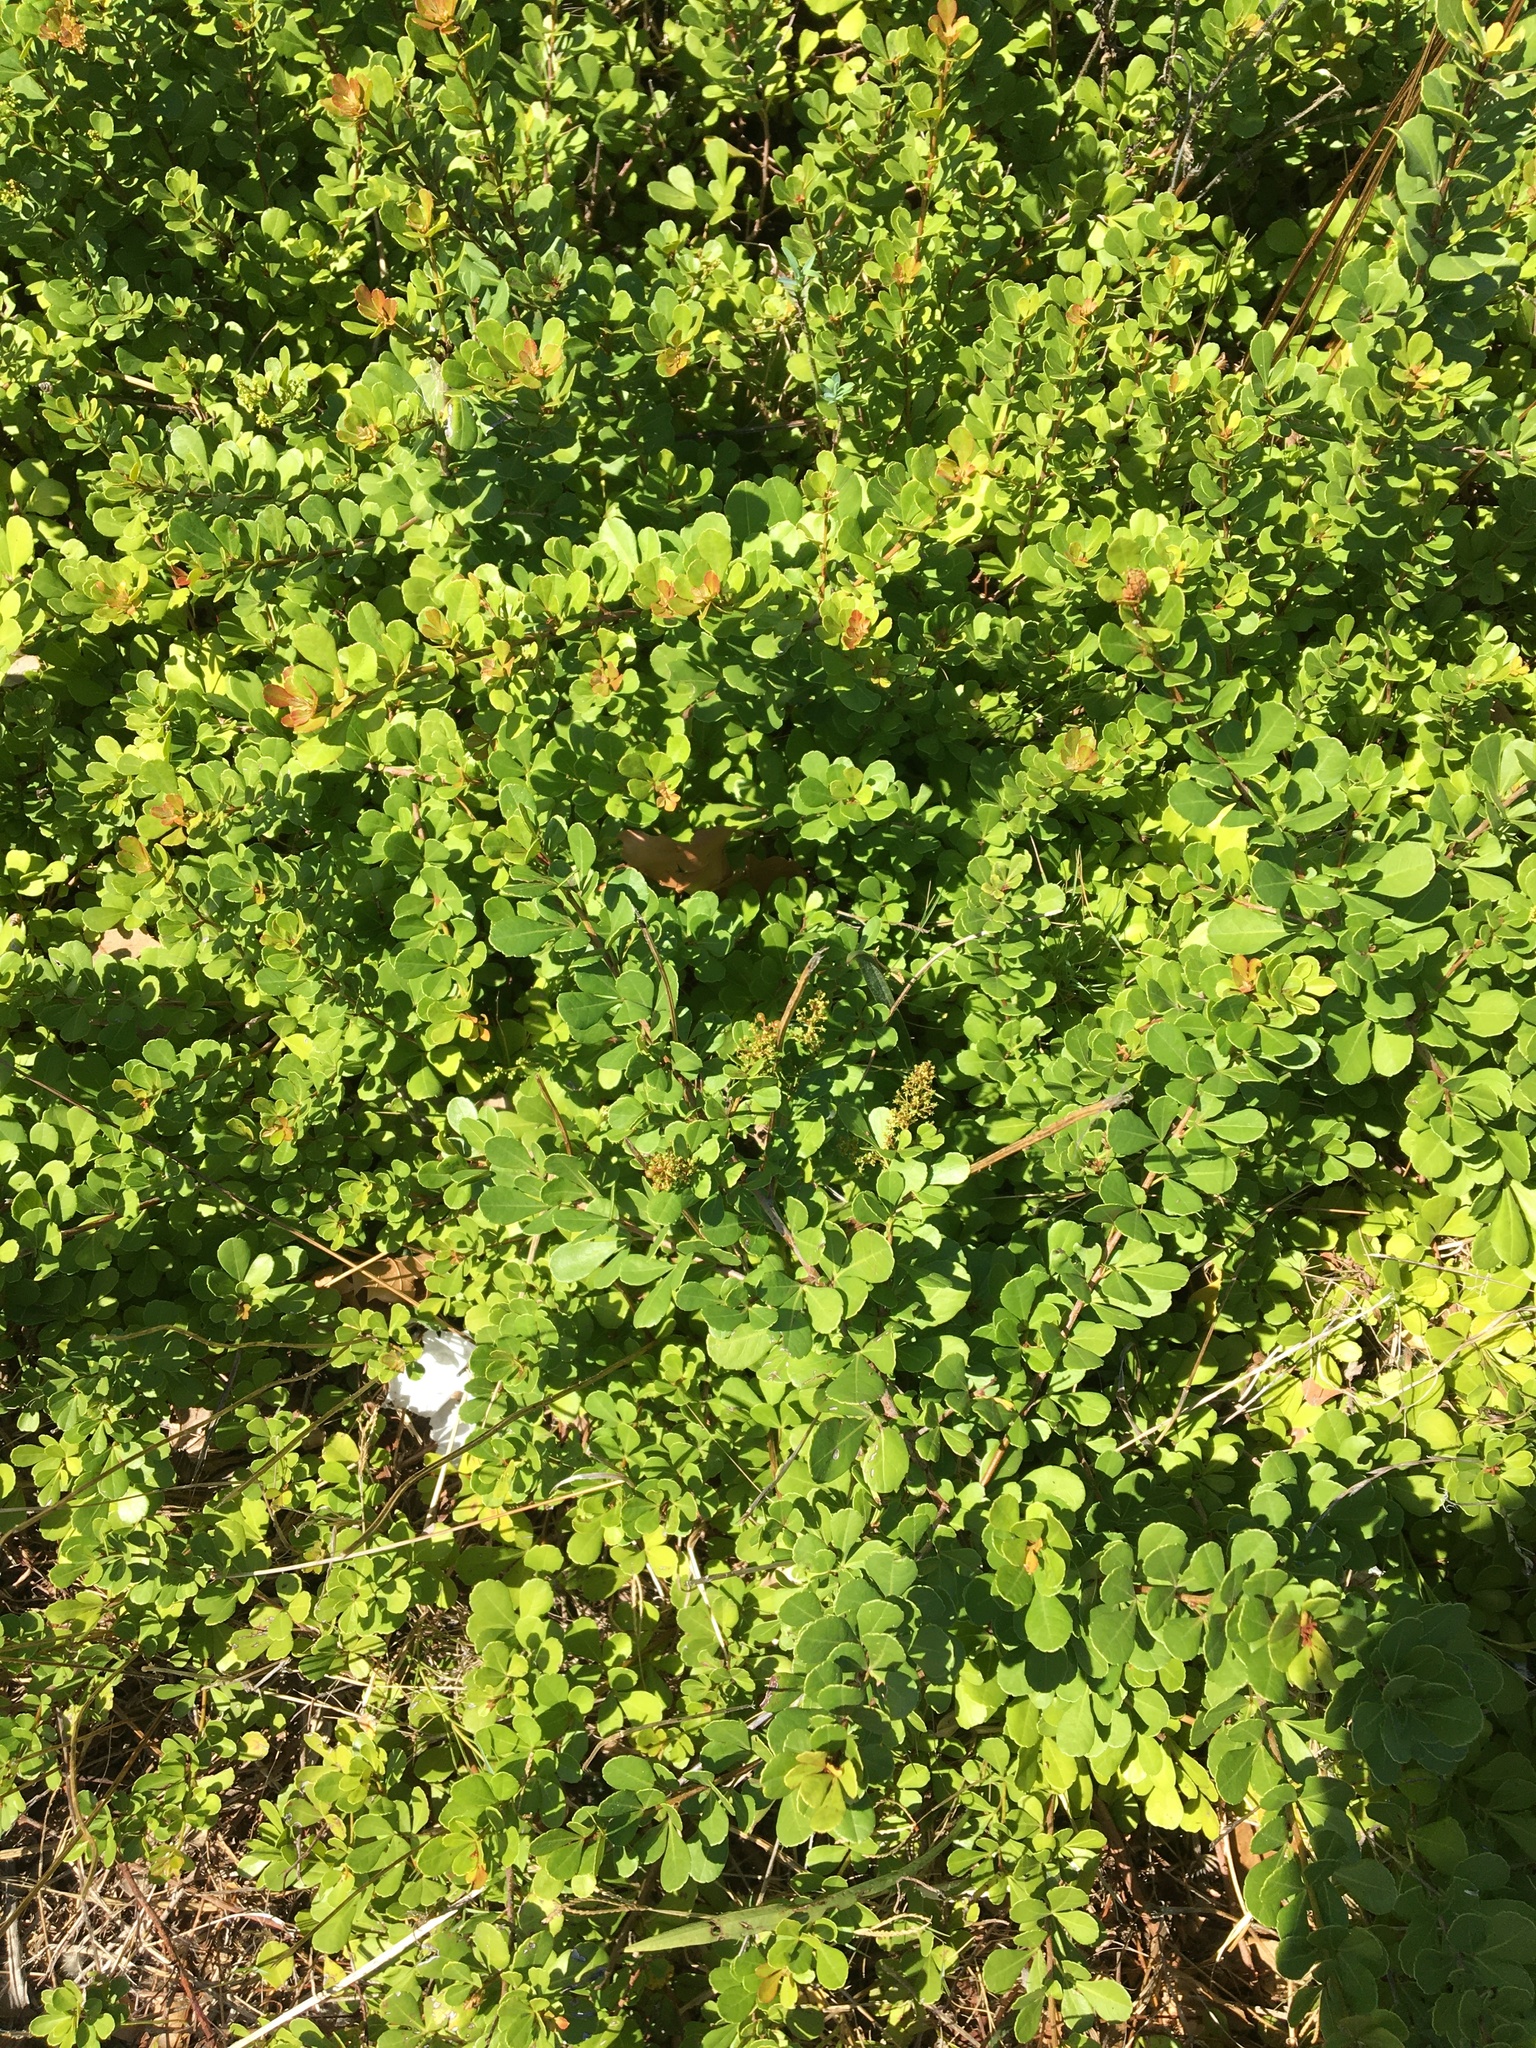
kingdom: Plantae
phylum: Tracheophyta
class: Magnoliopsida
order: Sapindales
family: Anacardiaceae
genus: Searsia
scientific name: Searsia crenata
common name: Crowberry
